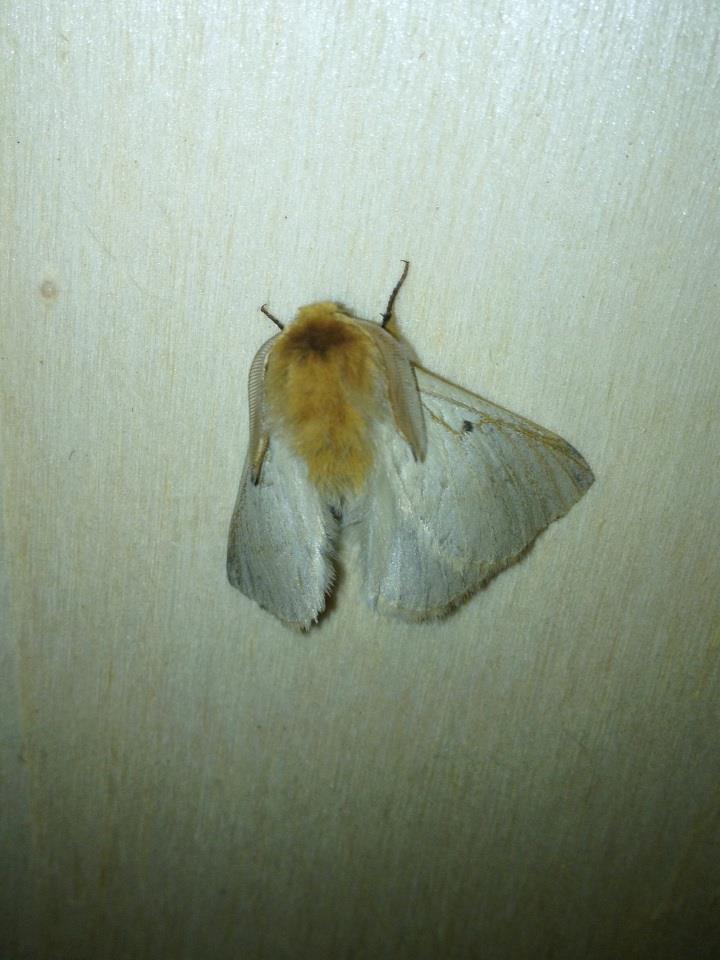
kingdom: Animalia
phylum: Arthropoda
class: Insecta
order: Lepidoptera
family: Brahmaeidae
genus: Lemonia
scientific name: Lemonia taraxaci
